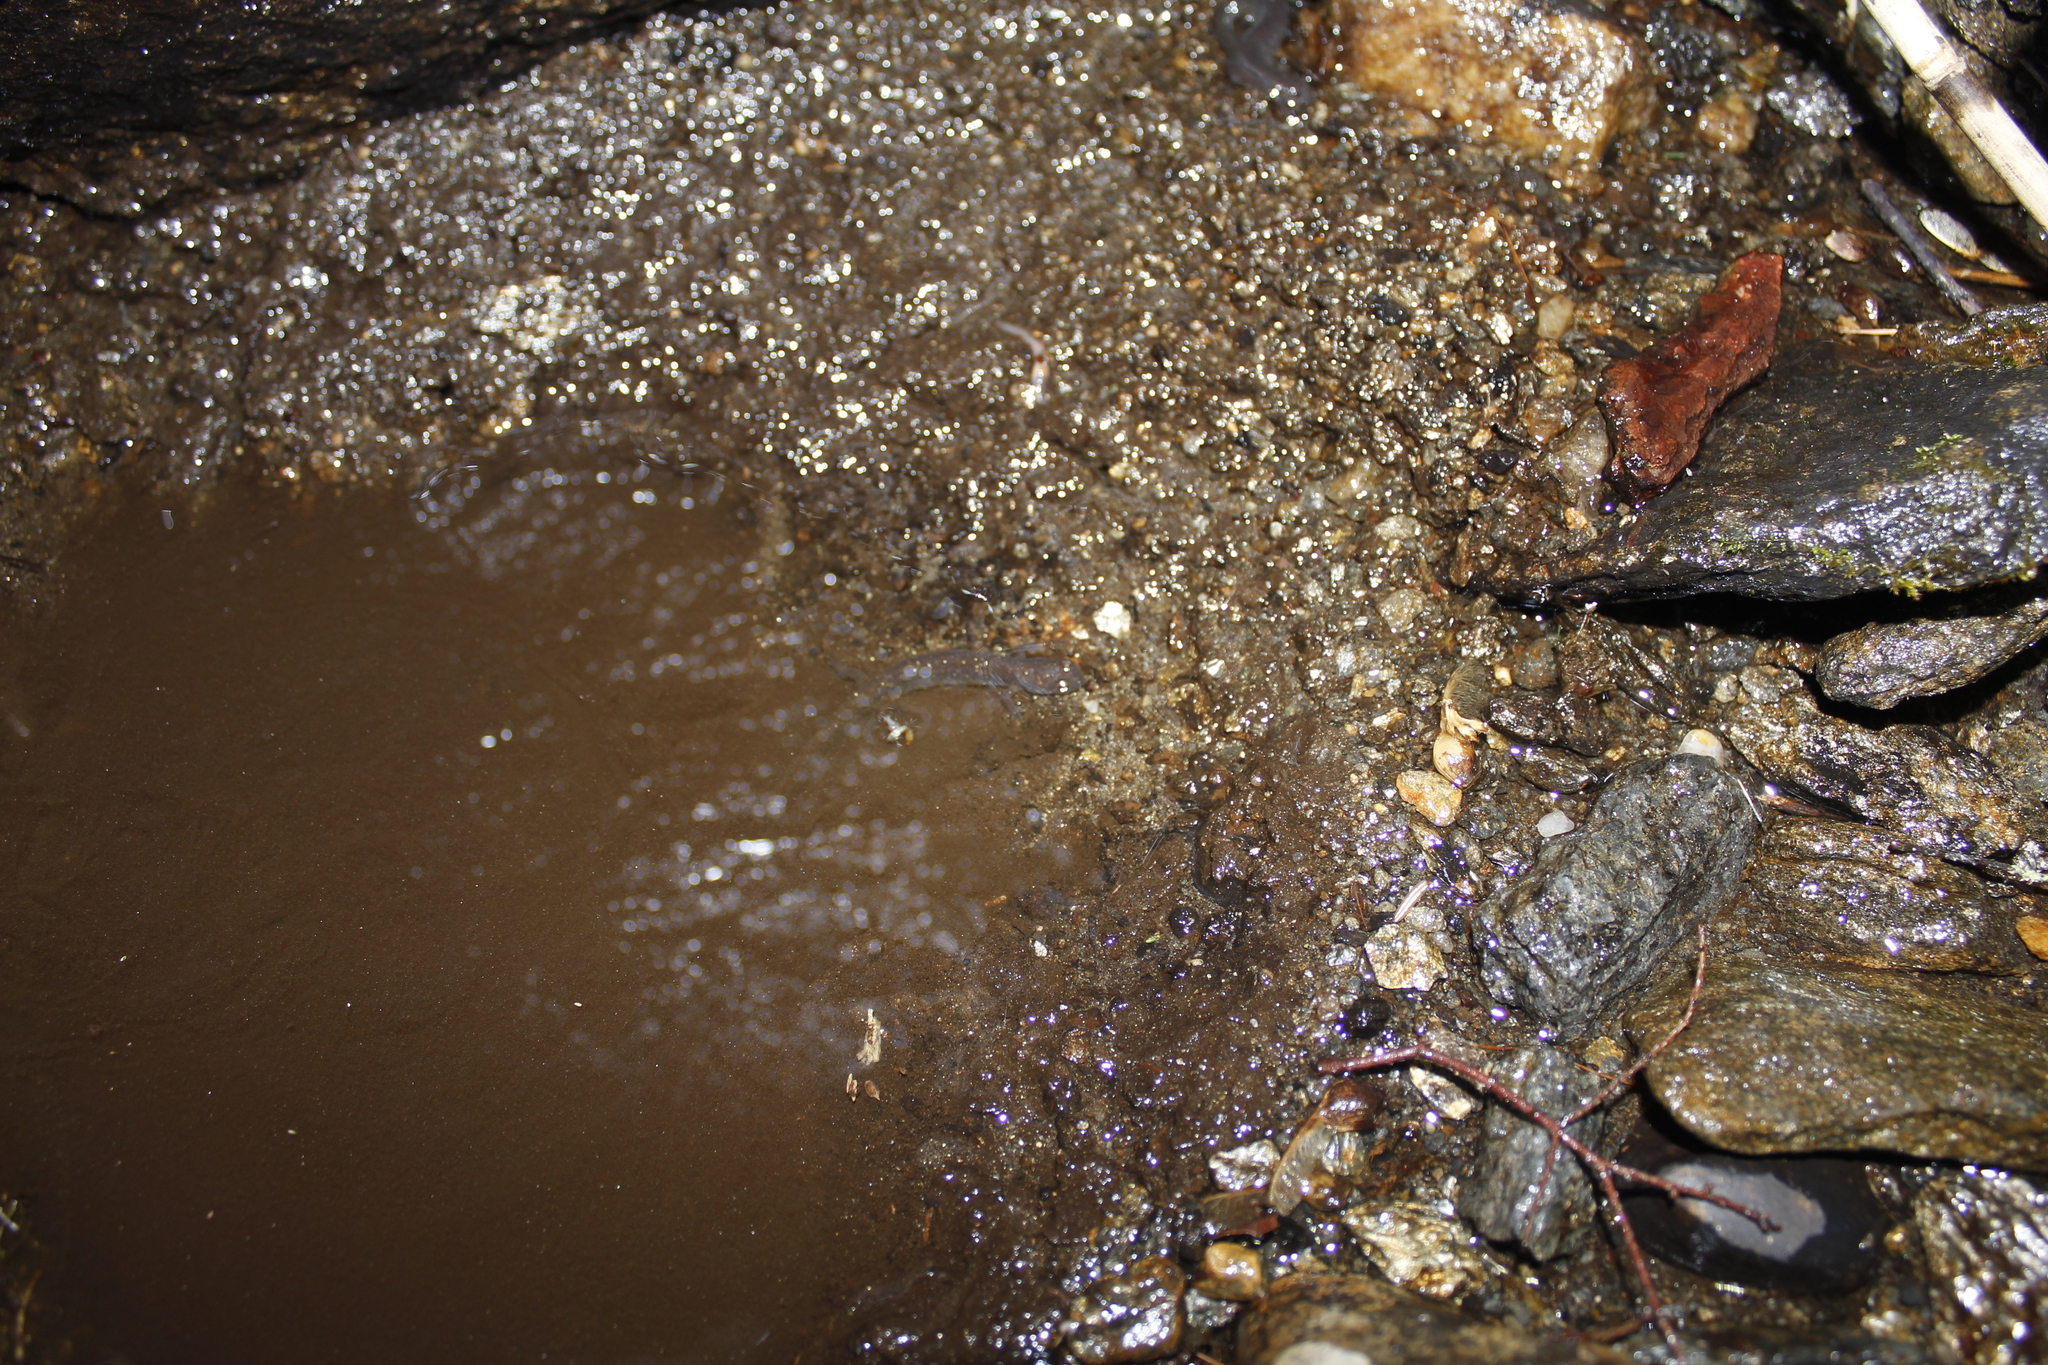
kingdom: Animalia
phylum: Chordata
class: Amphibia
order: Caudata
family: Plethodontidae
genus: Desmognathus
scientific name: Desmognathus fuscus
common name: Northern dusky salamander
